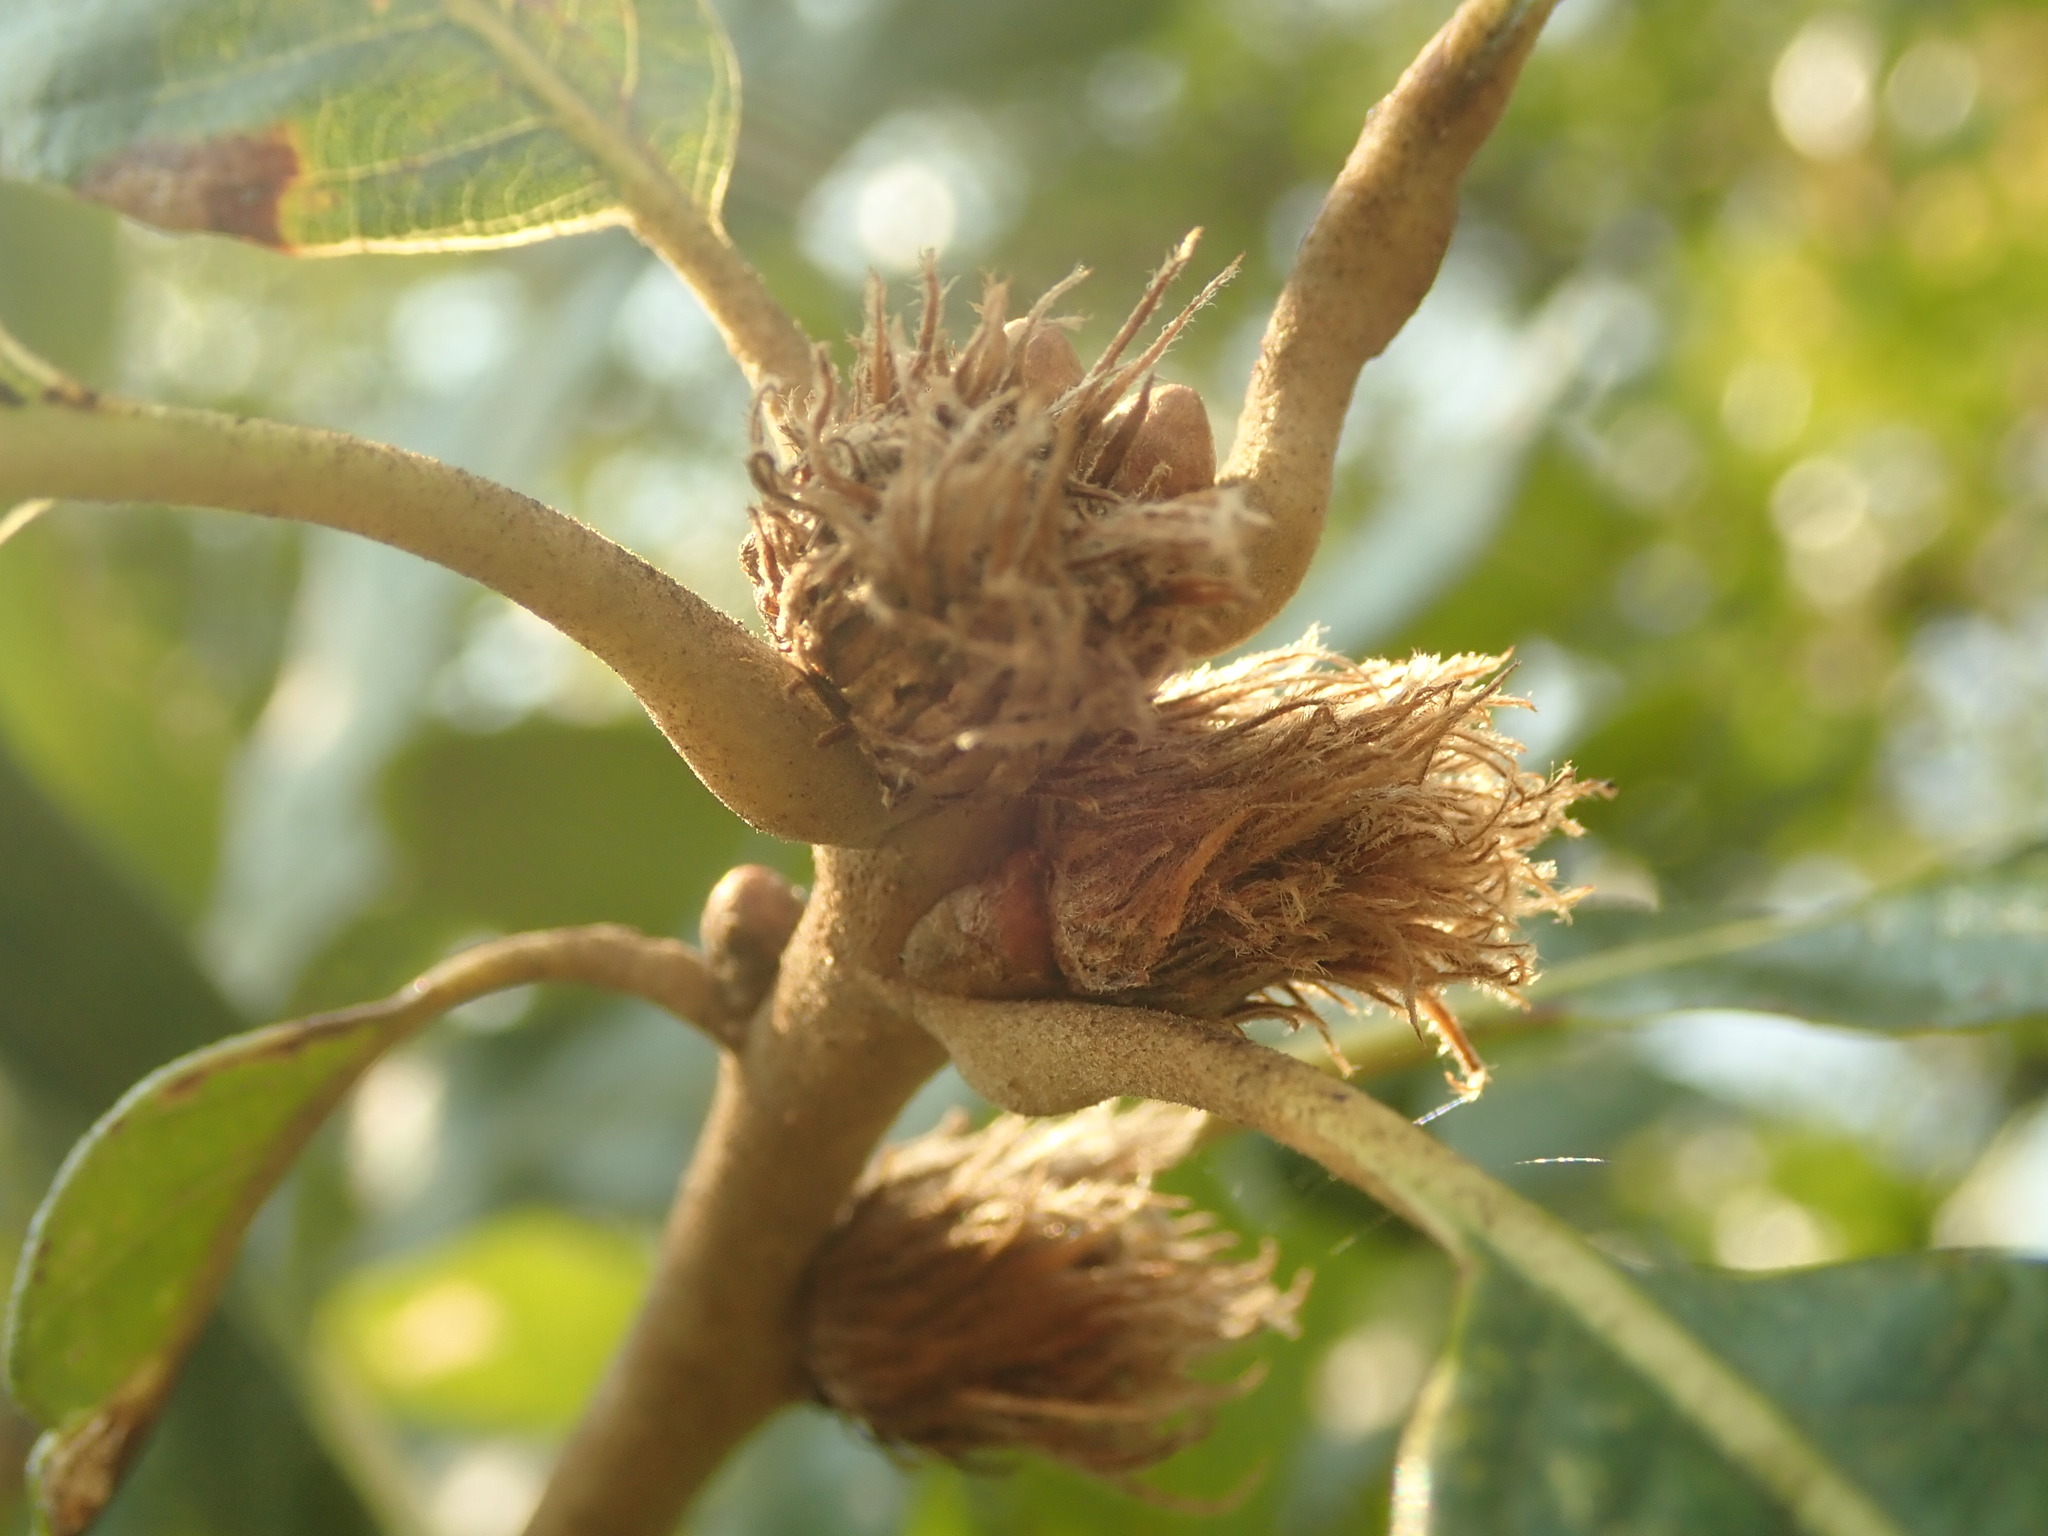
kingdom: Animalia
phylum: Arthropoda
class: Insecta
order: Hymenoptera
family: Cynipidae
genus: Andricus
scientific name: Andricus
